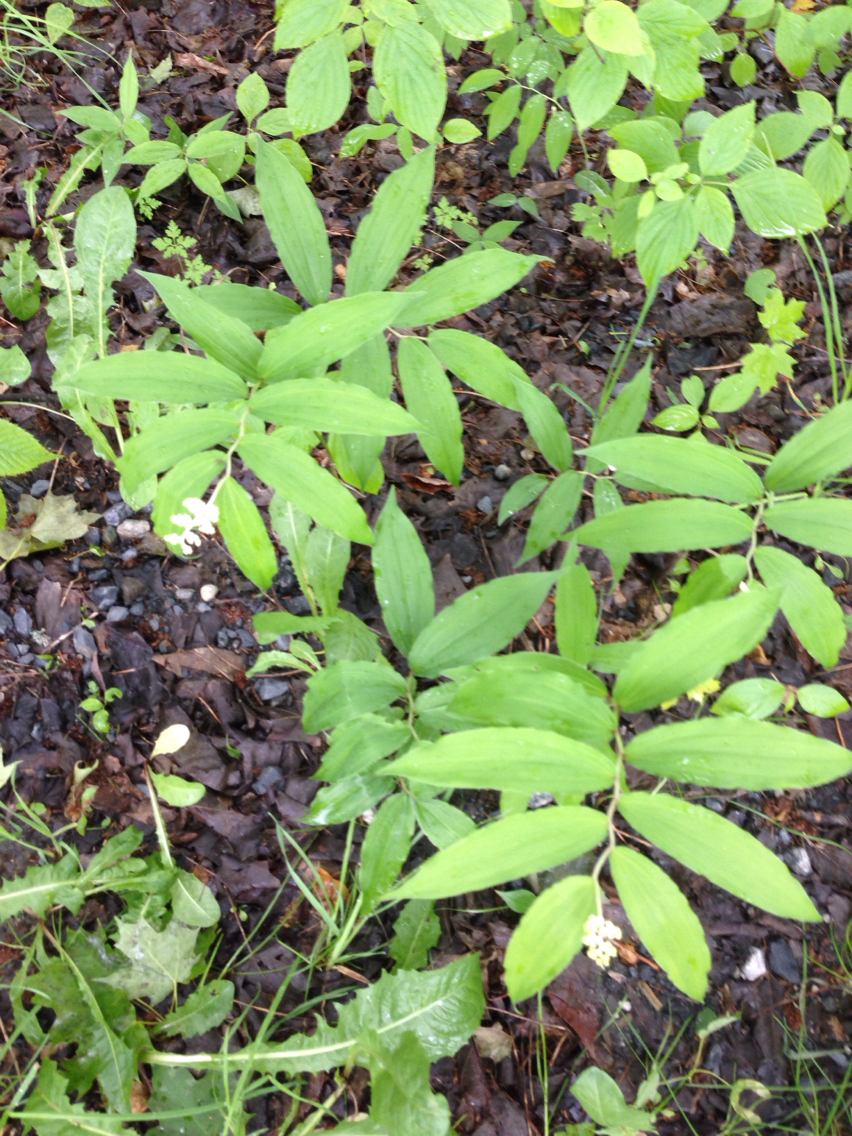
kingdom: Plantae
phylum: Tracheophyta
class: Liliopsida
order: Asparagales
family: Asparagaceae
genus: Maianthemum
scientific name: Maianthemum racemosum
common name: False spikenard
